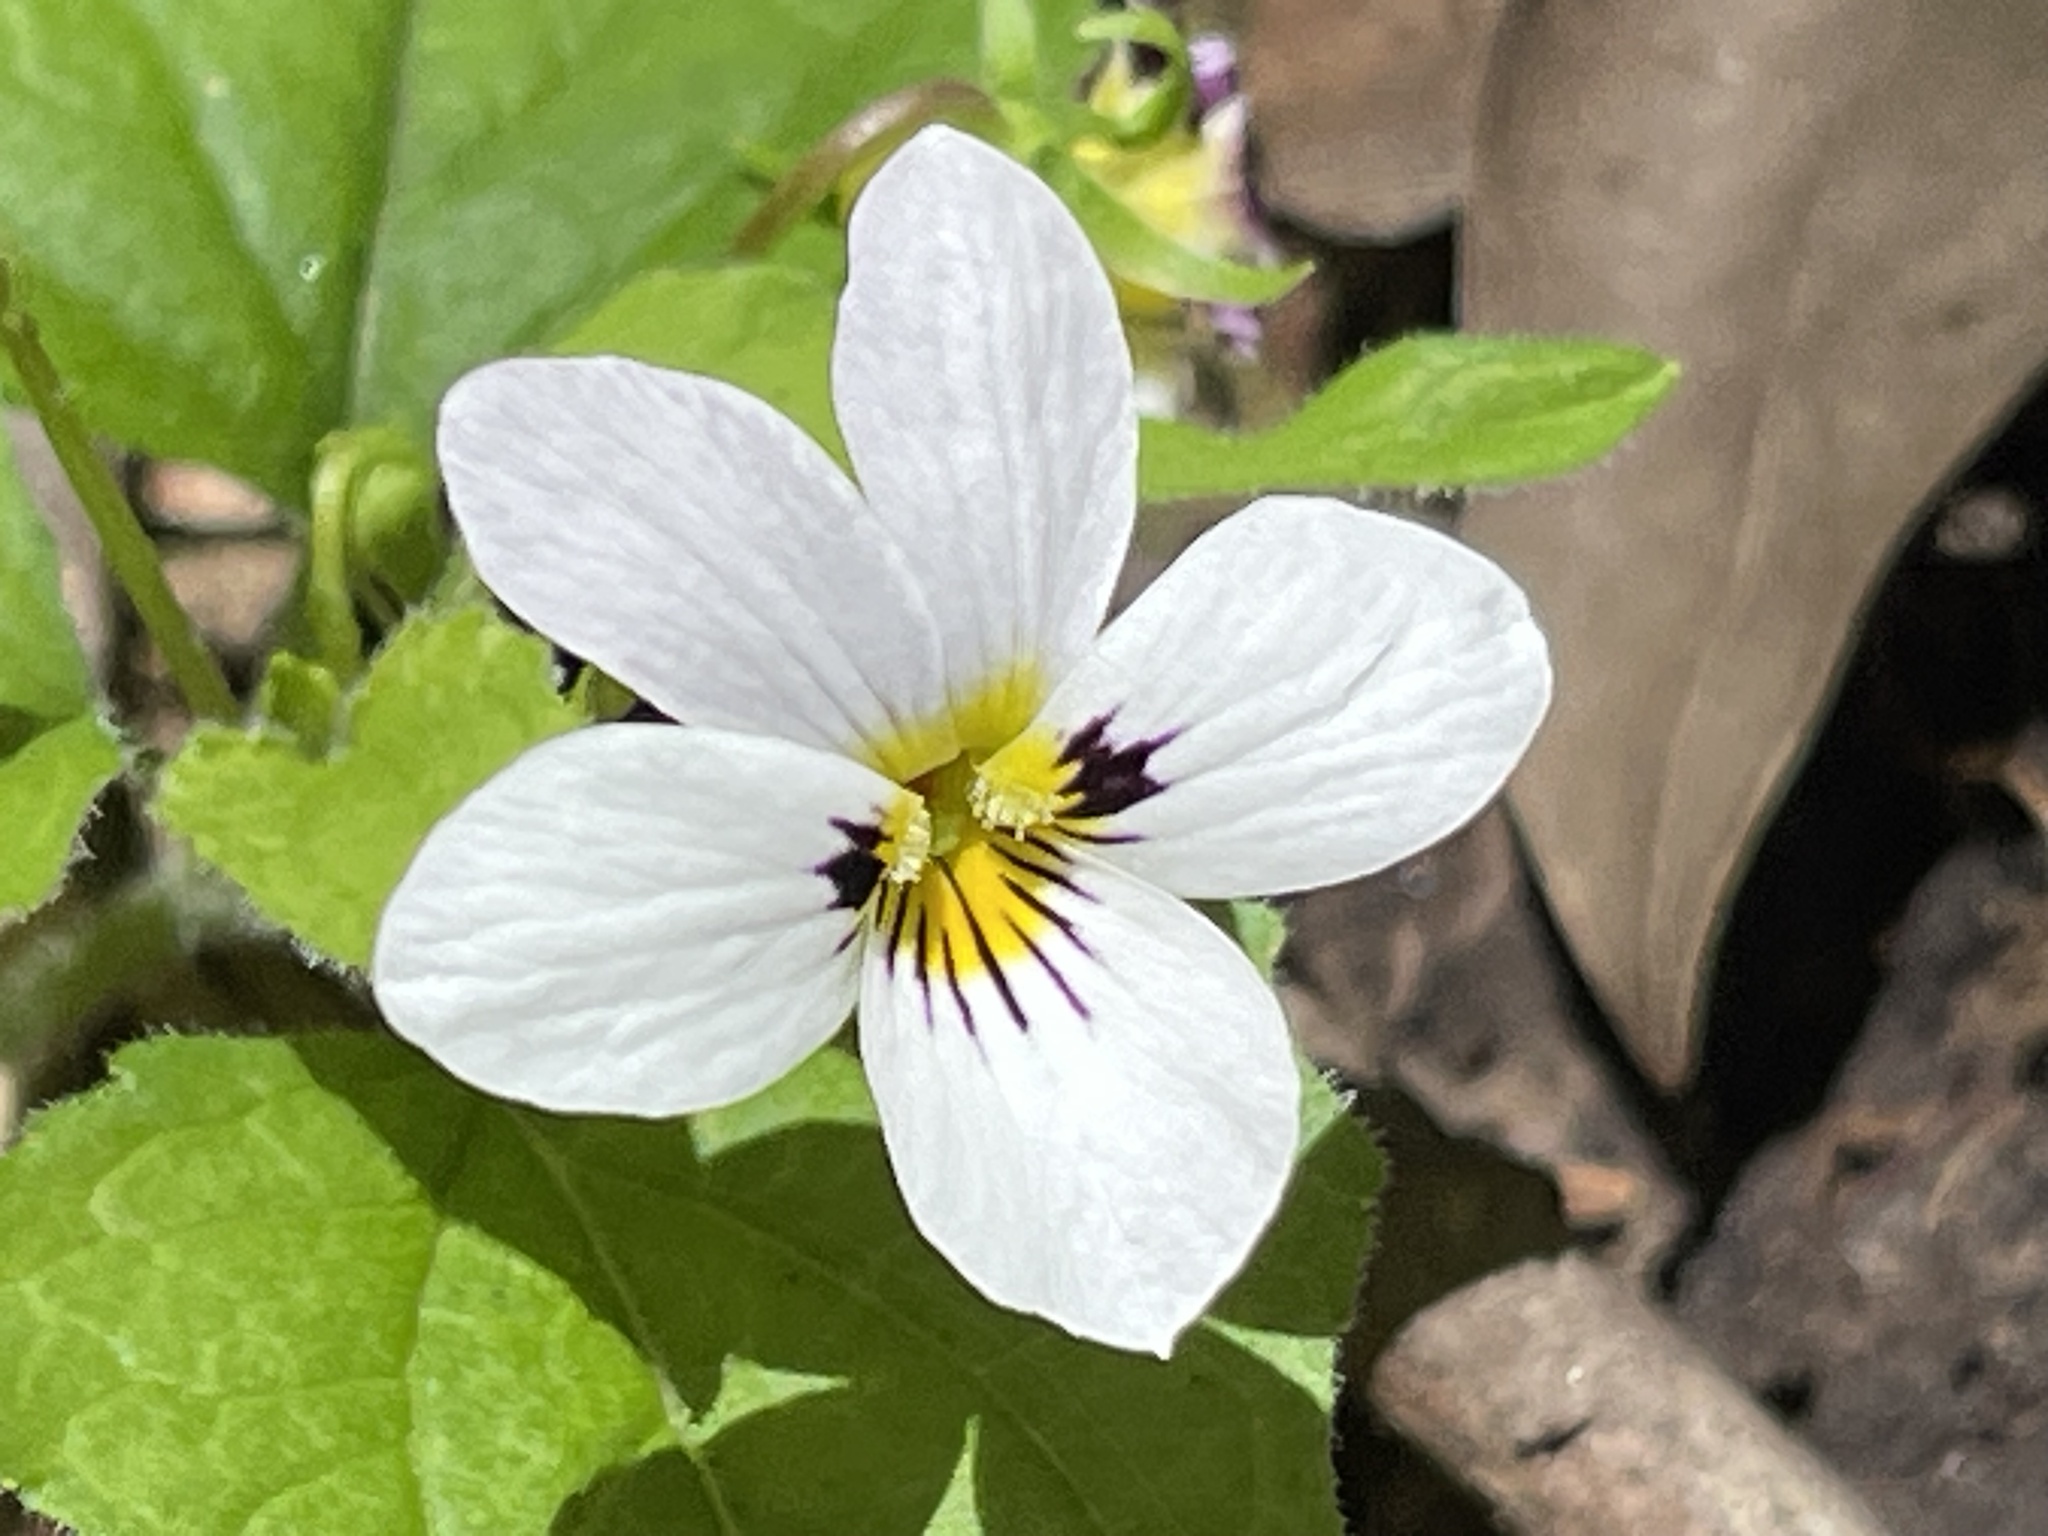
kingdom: Plantae
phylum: Tracheophyta
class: Magnoliopsida
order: Malpighiales
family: Violaceae
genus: Viola
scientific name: Viola ocellata
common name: Western heart's ease
